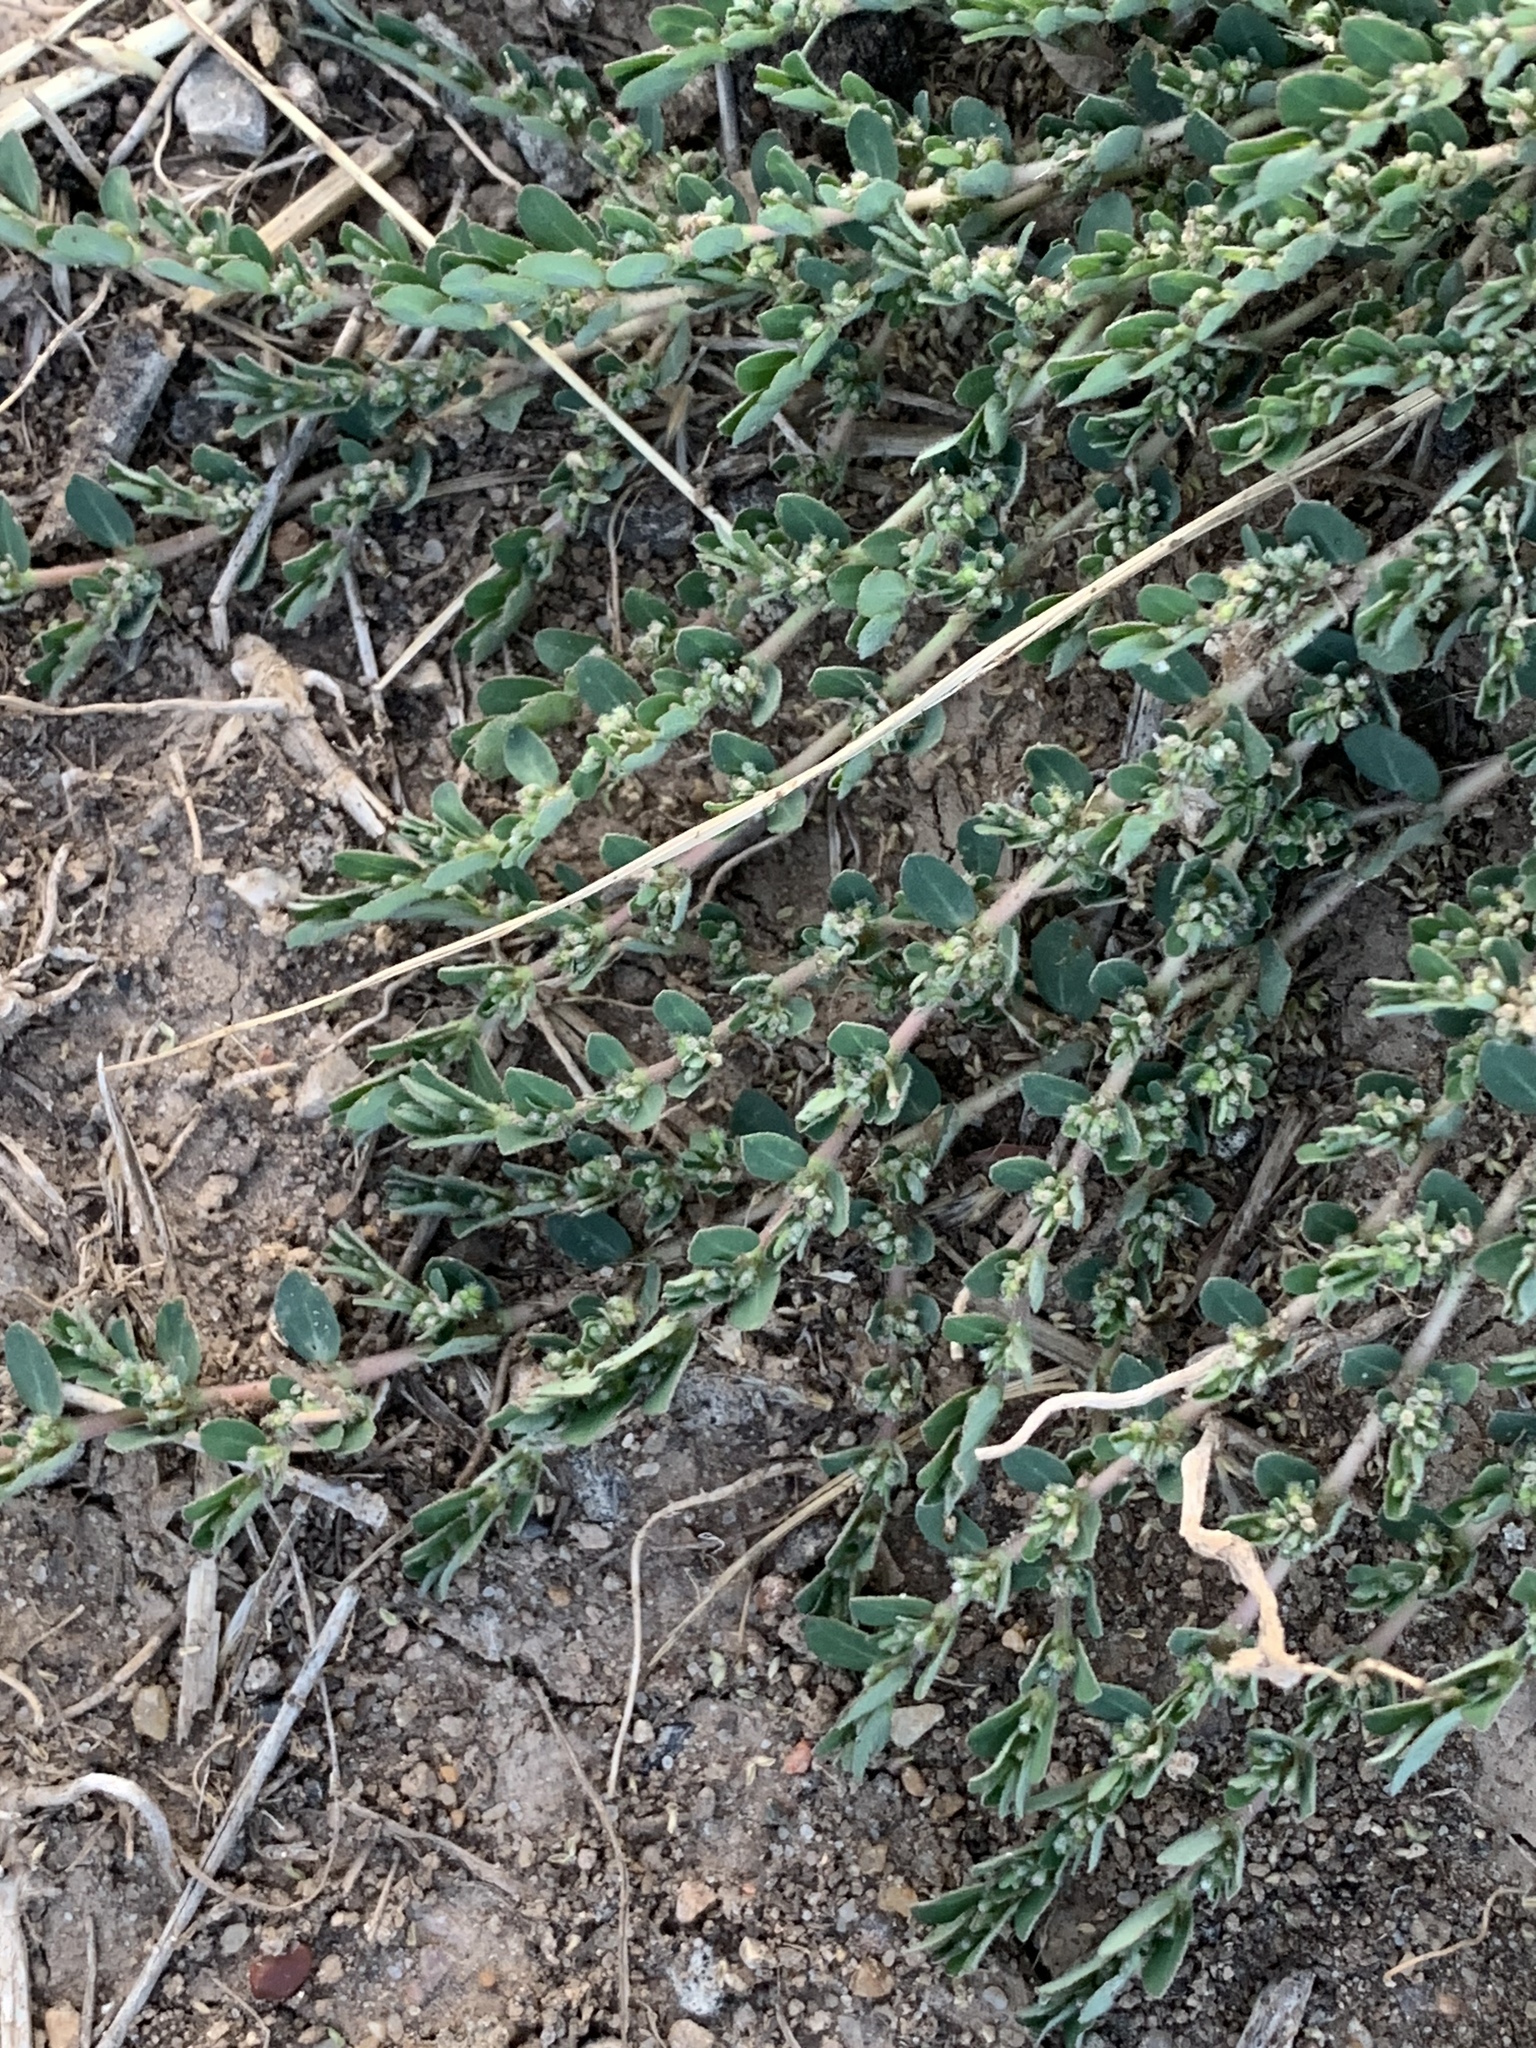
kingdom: Plantae
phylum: Tracheophyta
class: Magnoliopsida
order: Malpighiales
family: Euphorbiaceae
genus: Euphorbia
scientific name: Euphorbia prostrata
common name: Prostrate sandmat
